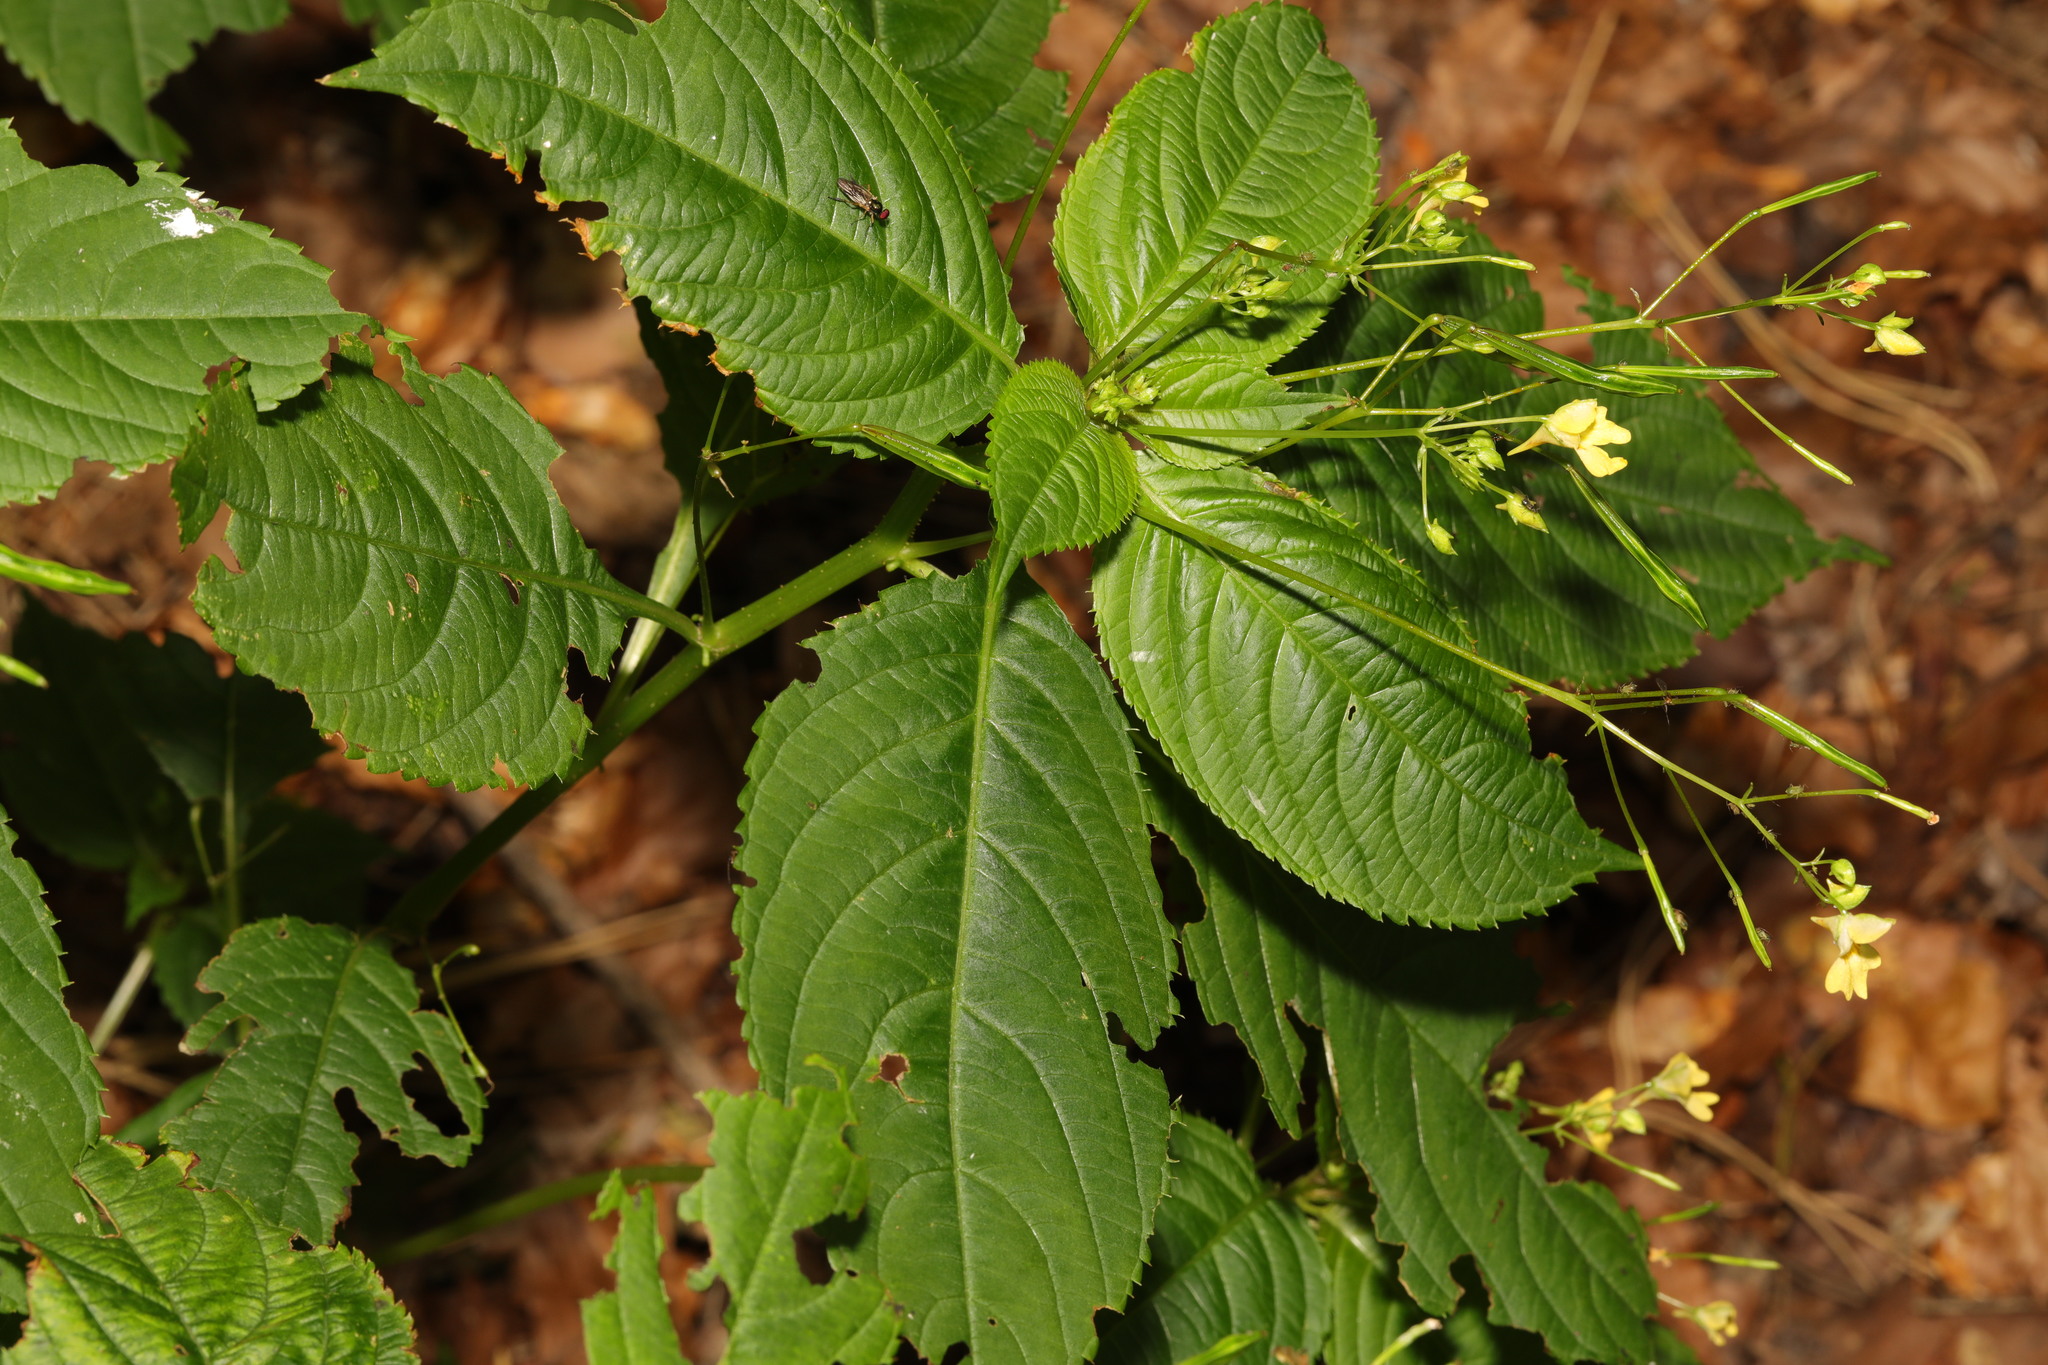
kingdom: Plantae
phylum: Tracheophyta
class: Magnoliopsida
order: Ericales
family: Balsaminaceae
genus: Impatiens
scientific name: Impatiens parviflora
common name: Small balsam
